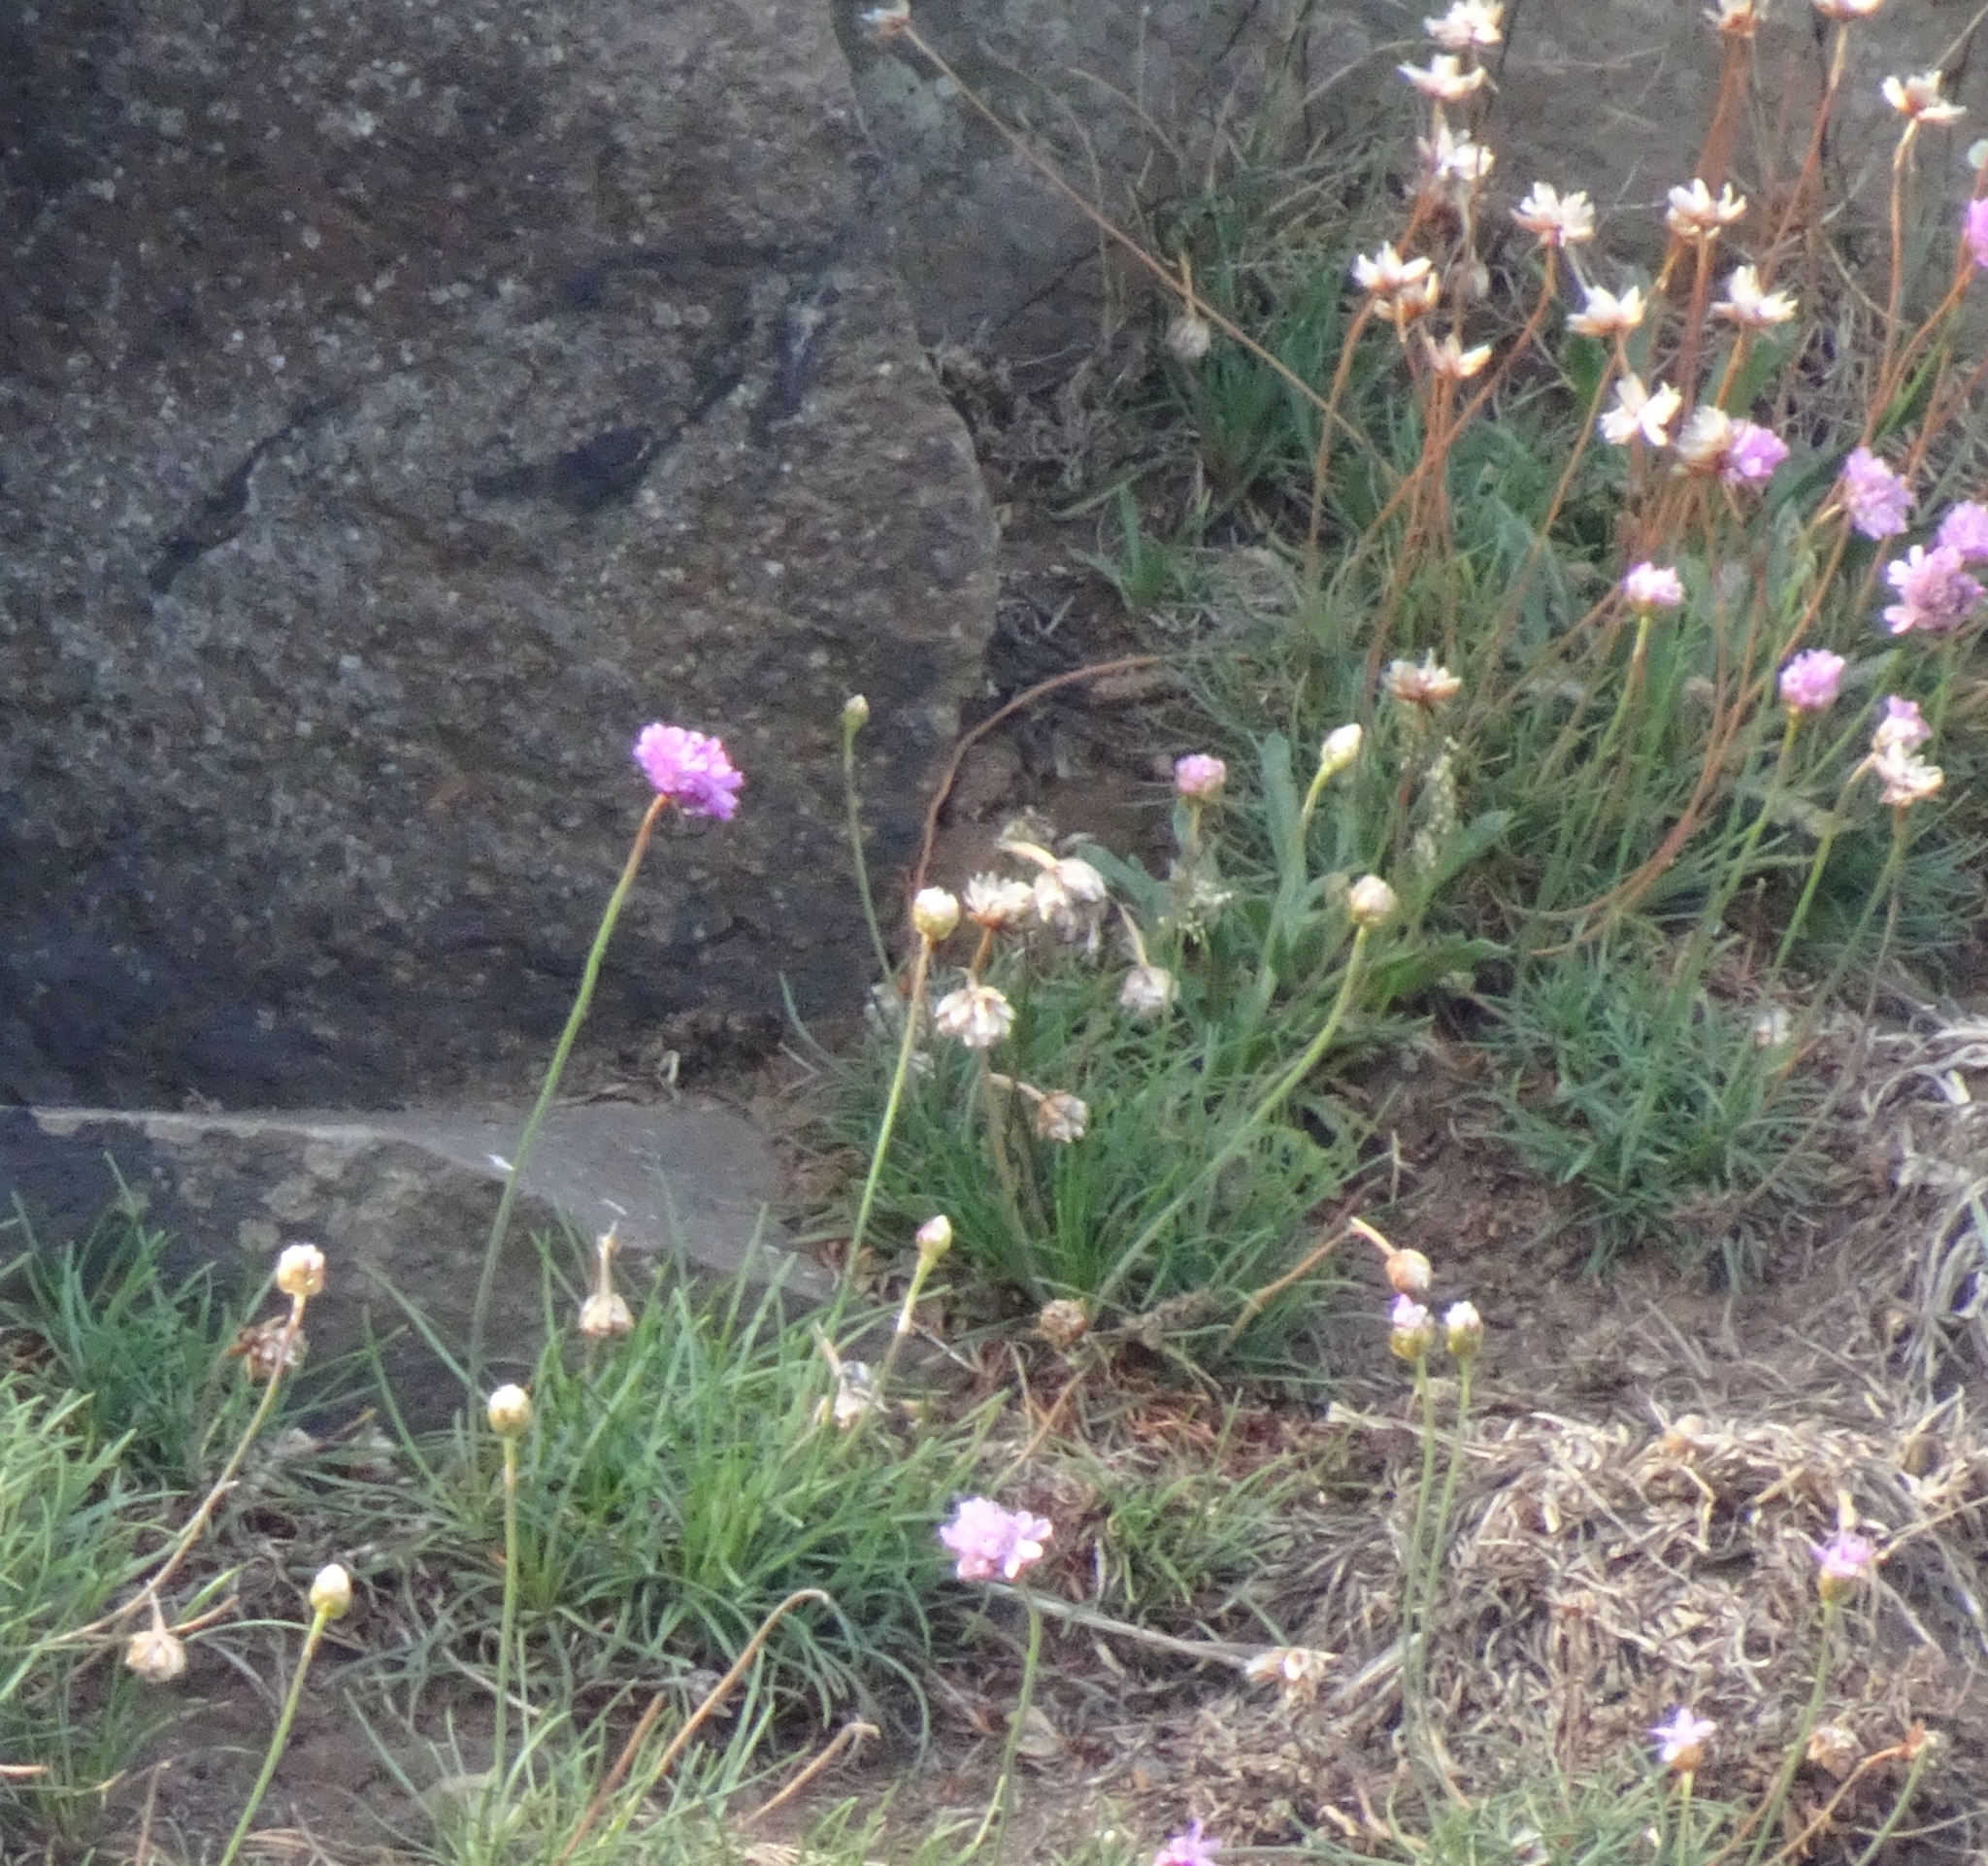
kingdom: Plantae
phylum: Tracheophyta
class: Magnoliopsida
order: Caryophyllales
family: Plumbaginaceae
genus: Armeria
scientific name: Armeria maritima
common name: Thrift
